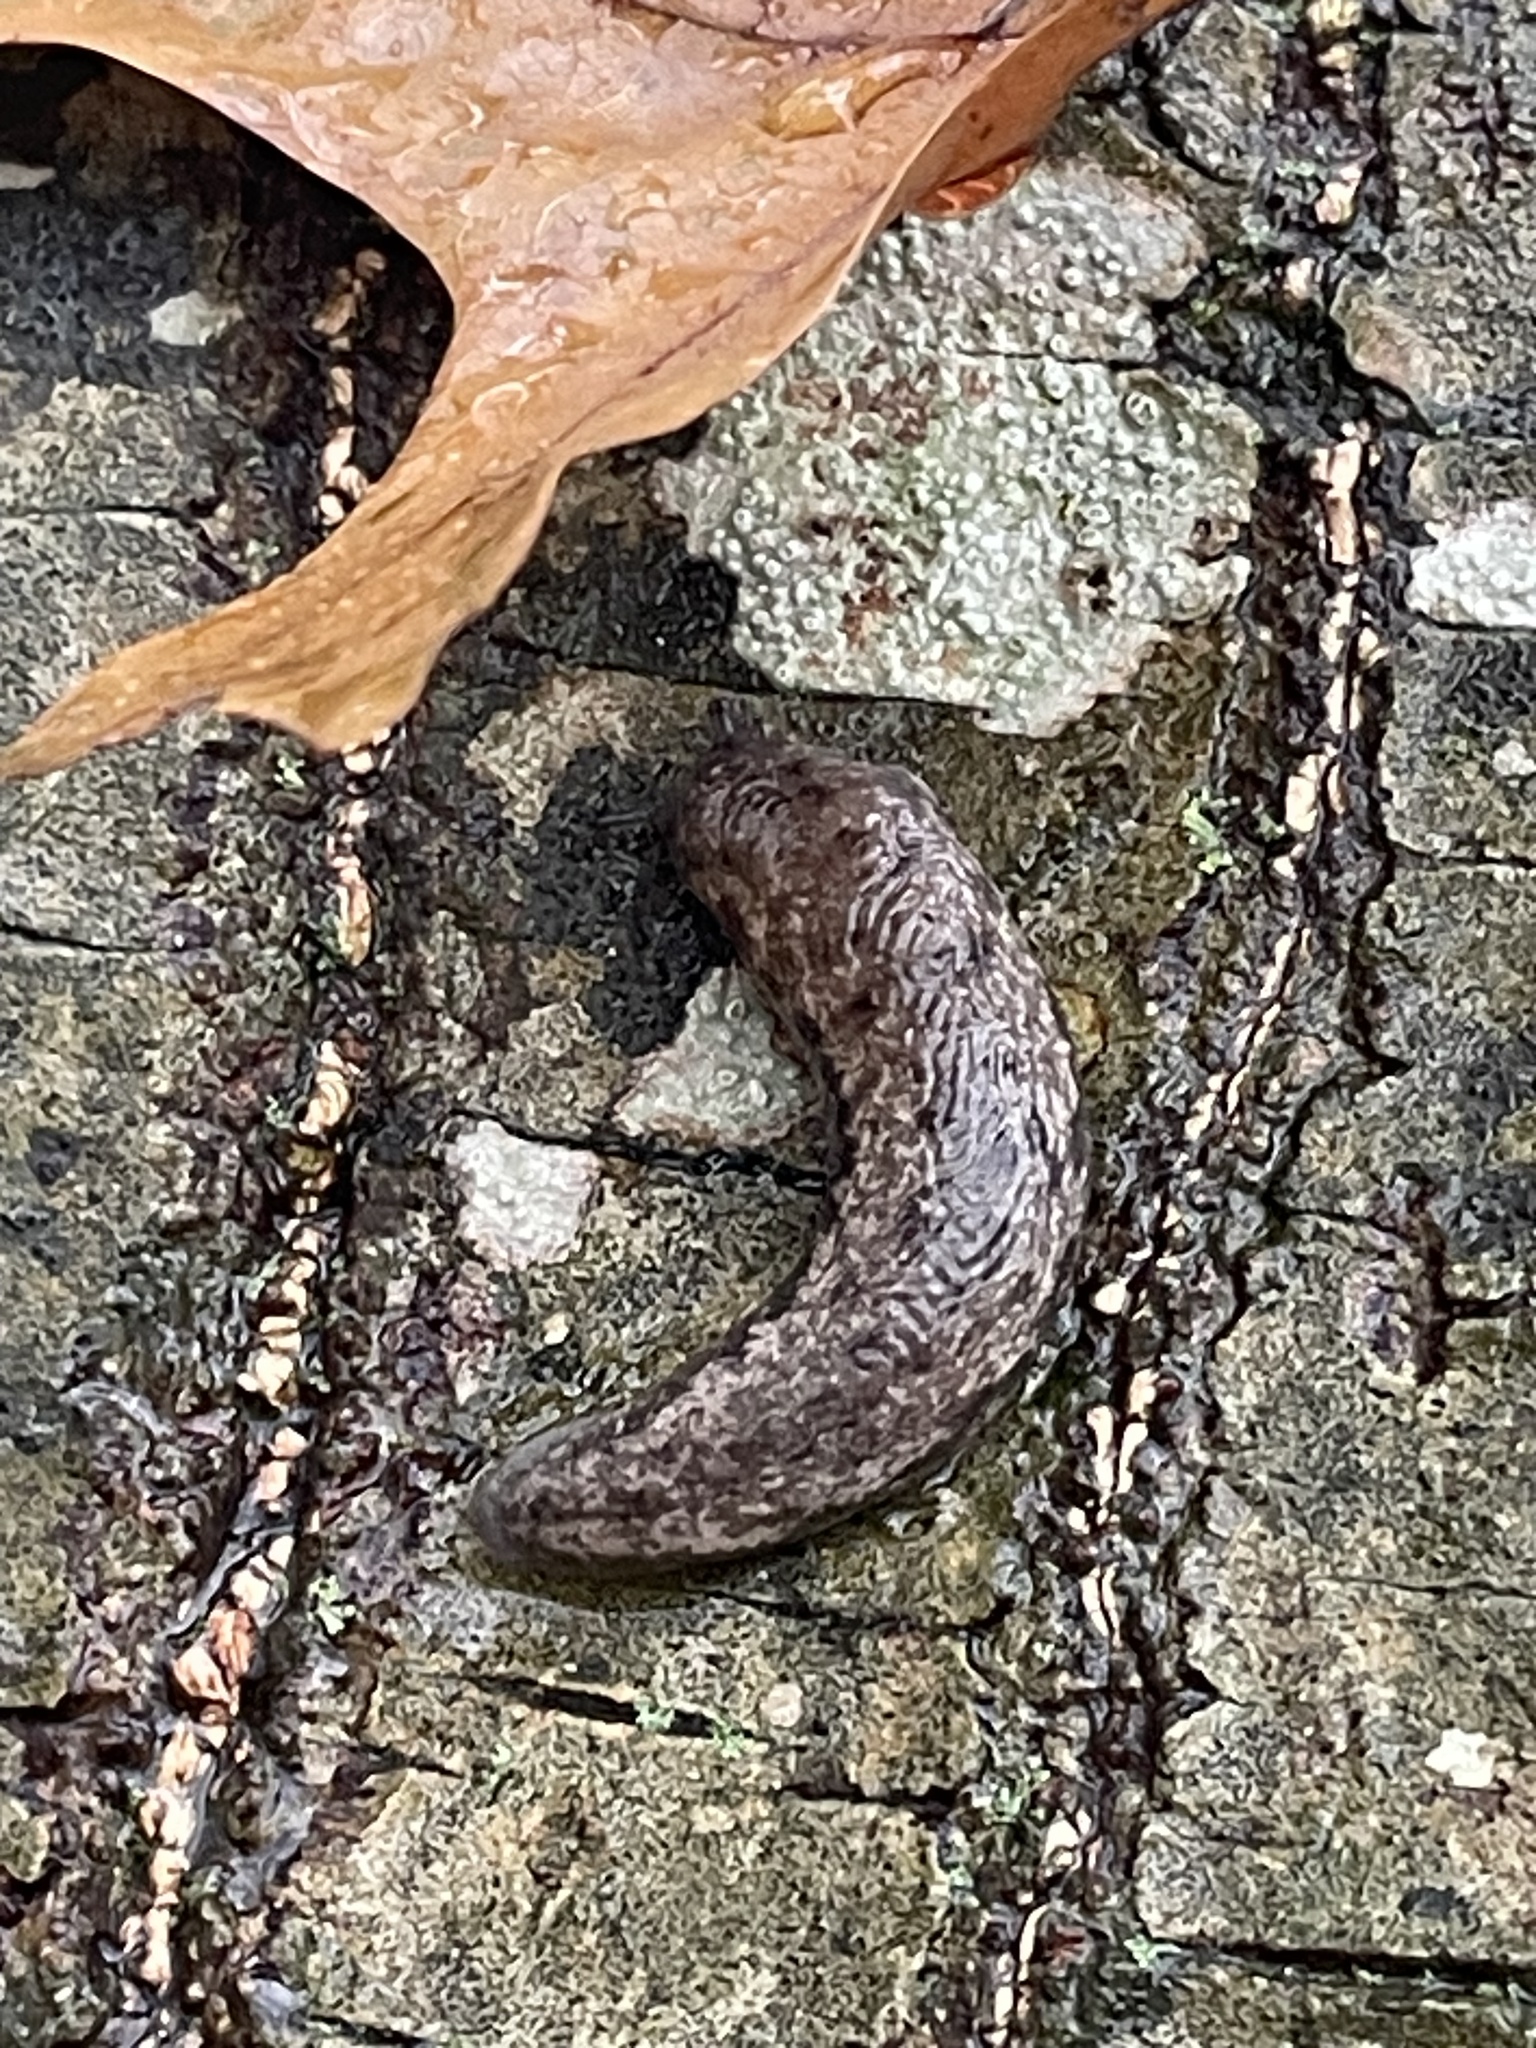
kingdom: Animalia
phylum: Mollusca
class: Gastropoda
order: Stylommatophora
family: Philomycidae
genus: Megapallifera
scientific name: Megapallifera mutabilis
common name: Changeable mantleslug
